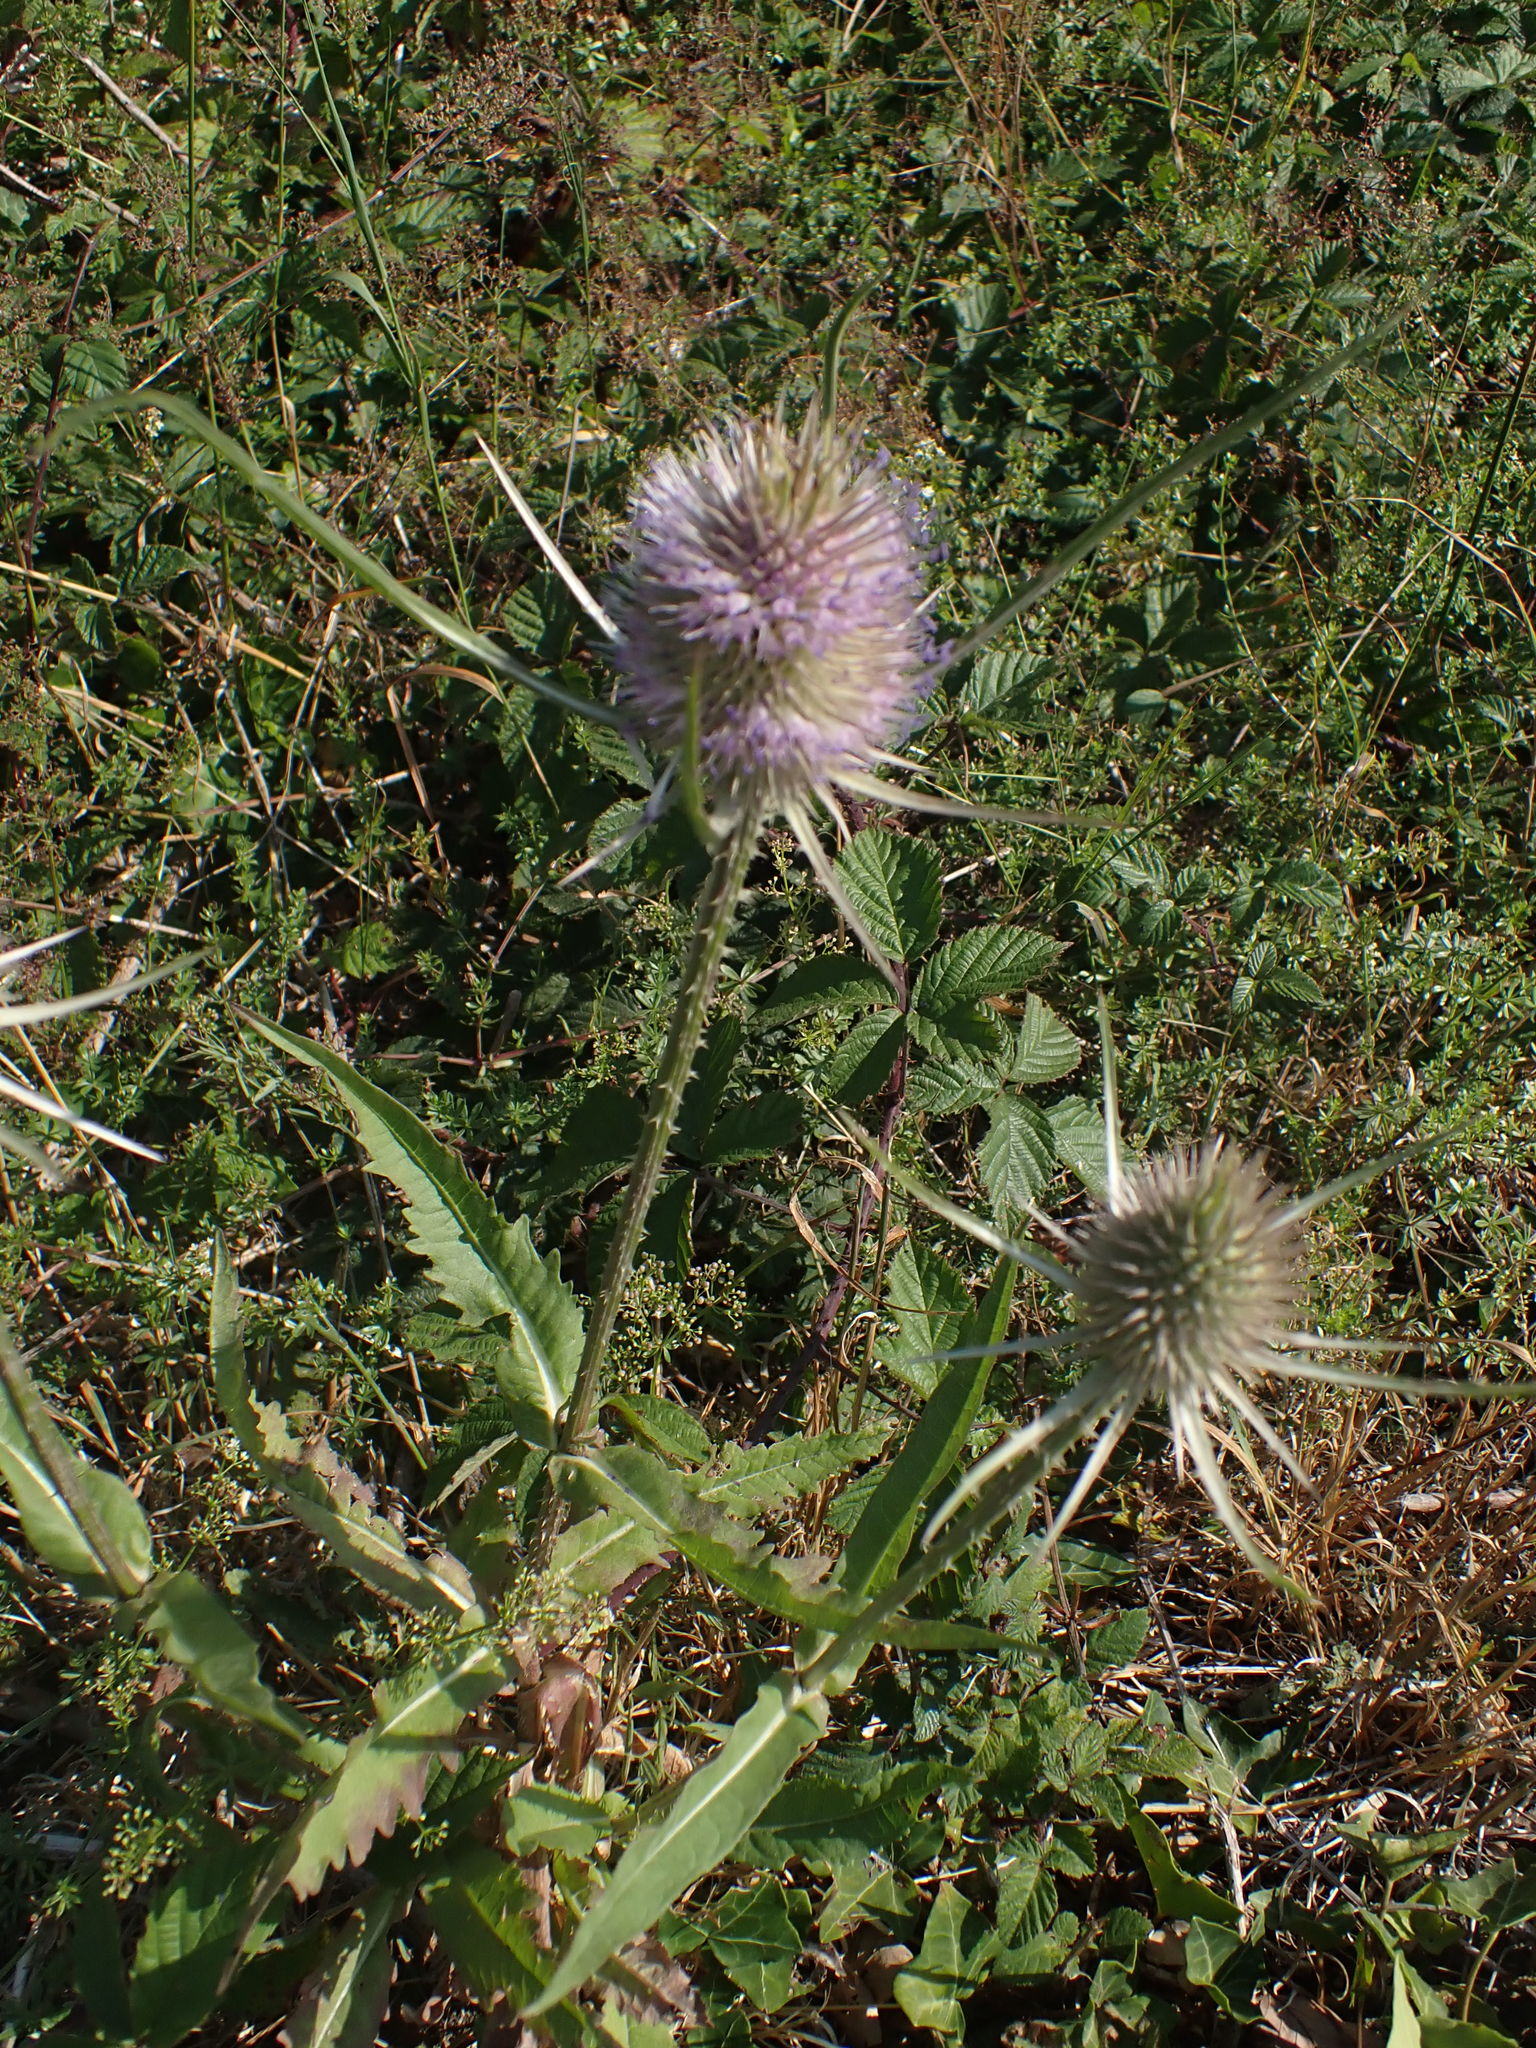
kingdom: Plantae
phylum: Tracheophyta
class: Magnoliopsida
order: Dipsacales
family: Caprifoliaceae
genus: Dipsacus
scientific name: Dipsacus fullonum
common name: Teasel
